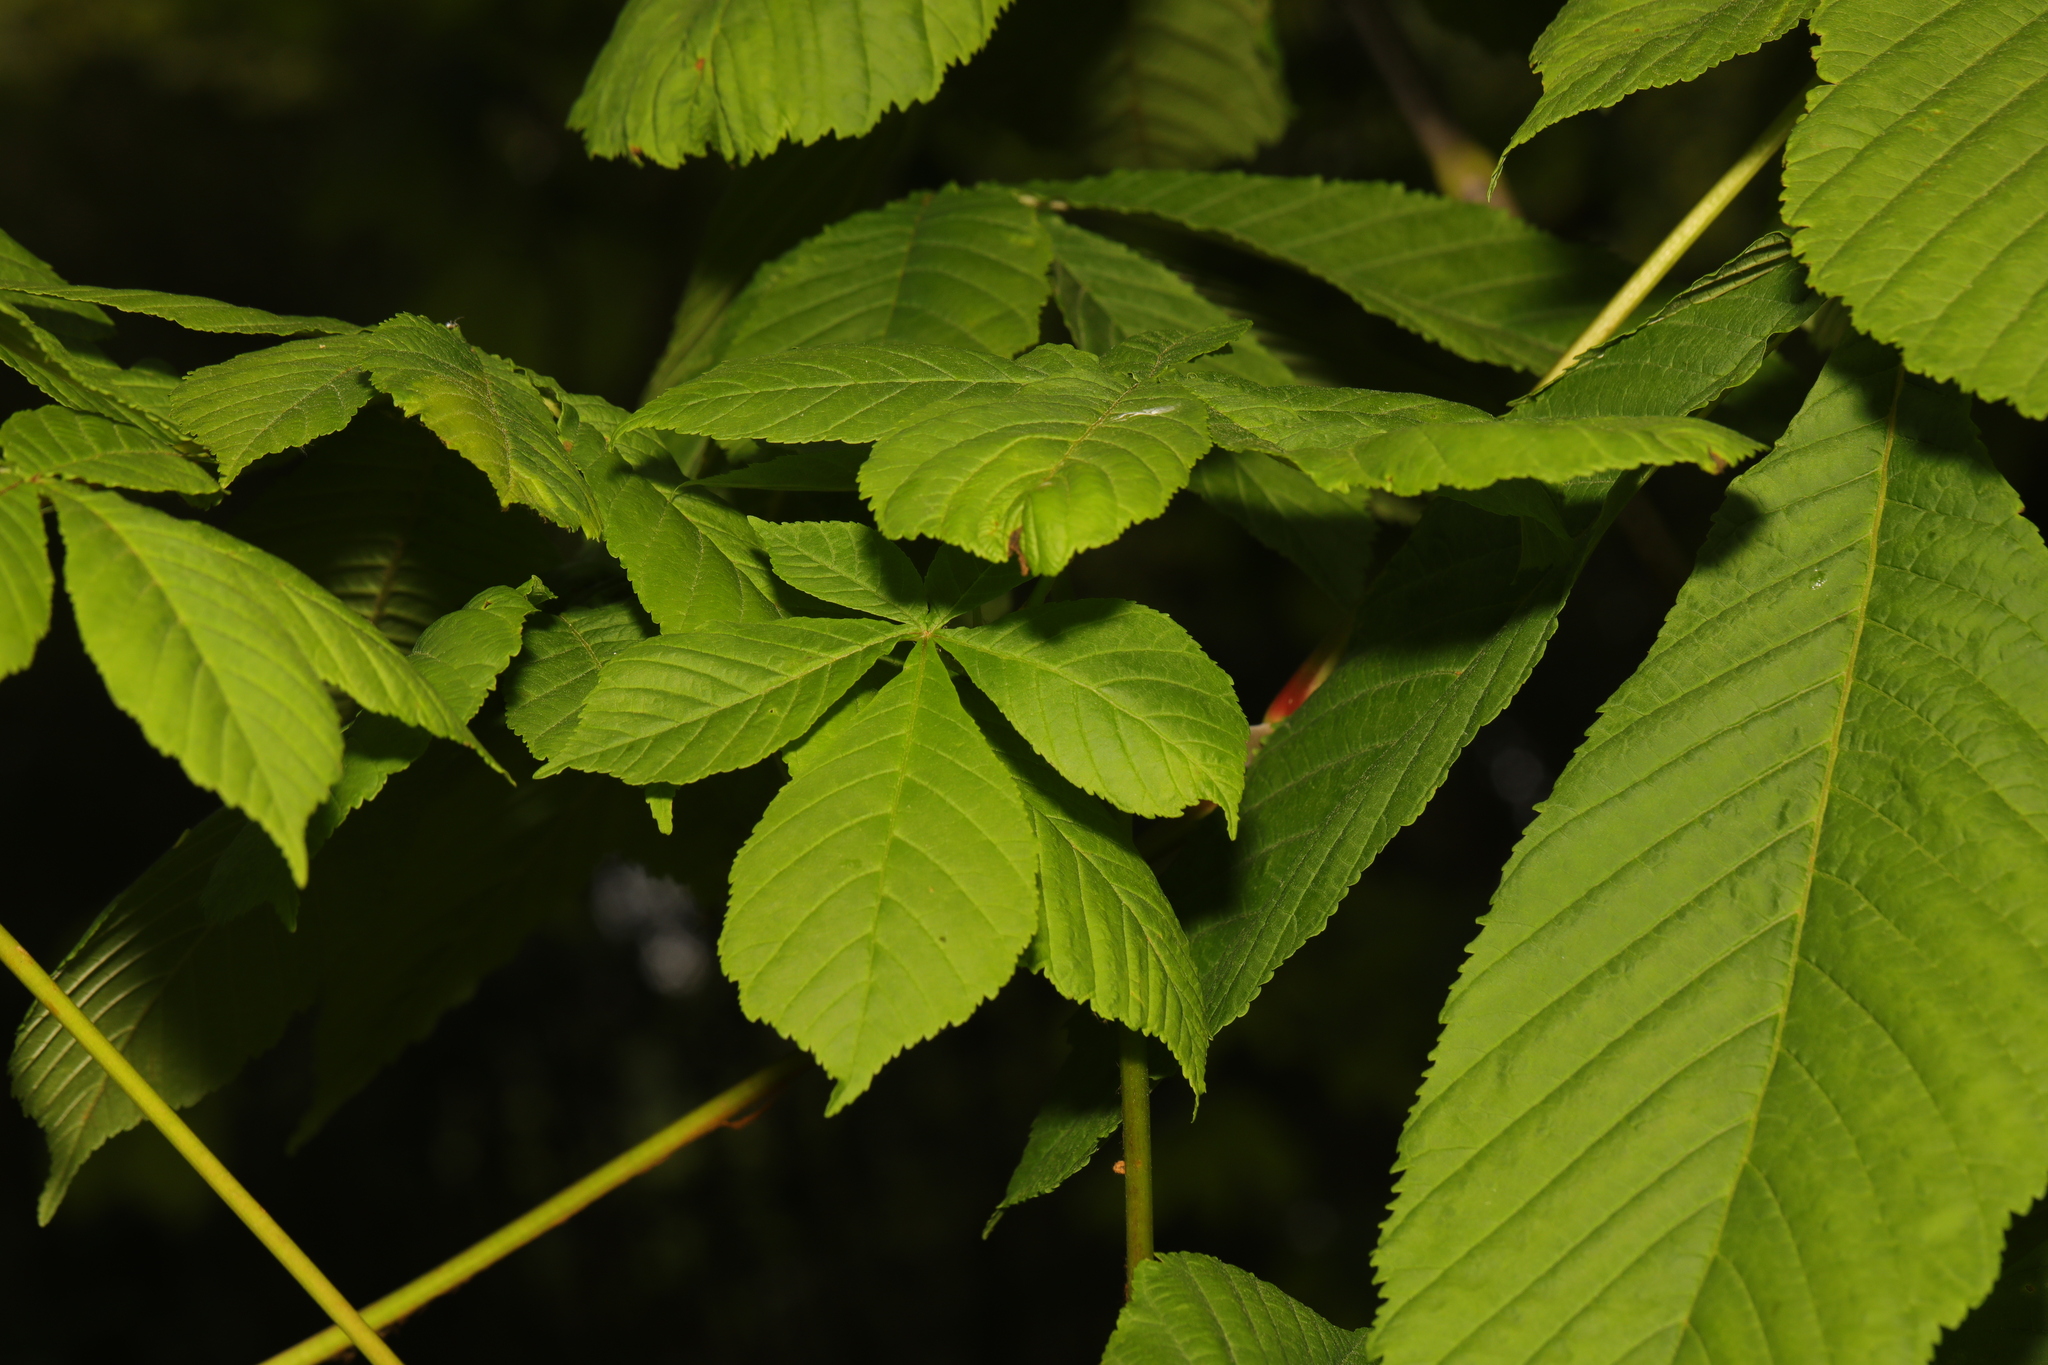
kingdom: Plantae
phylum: Tracheophyta
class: Magnoliopsida
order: Sapindales
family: Sapindaceae
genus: Aesculus
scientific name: Aesculus hippocastanum
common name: Horse-chestnut
